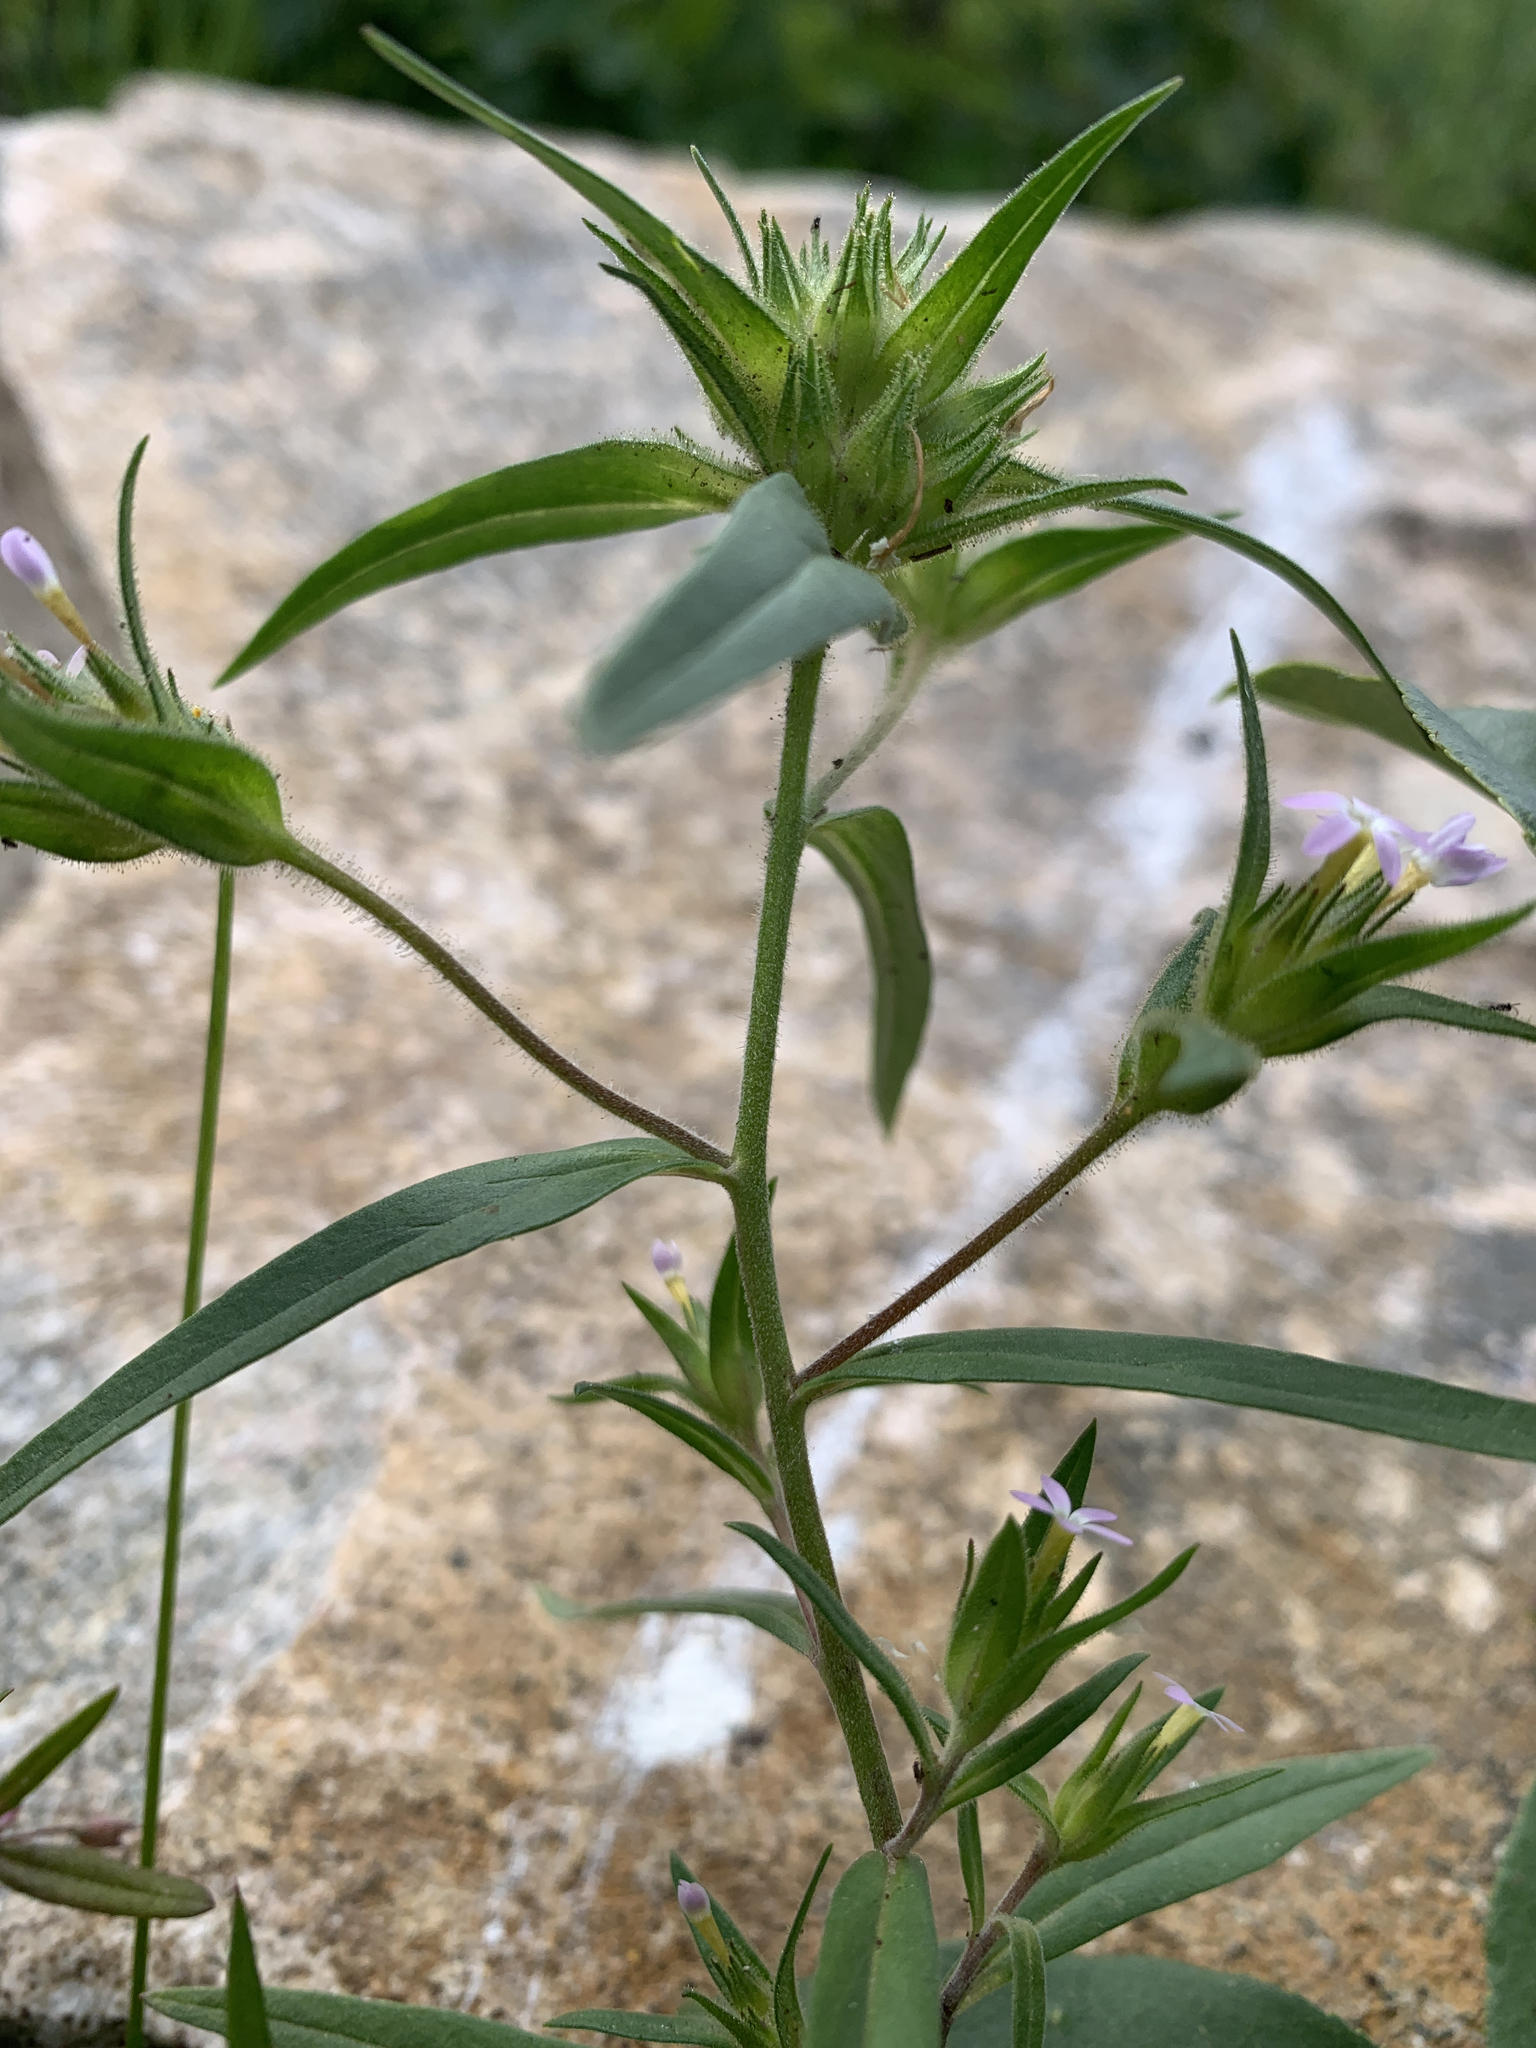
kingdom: Plantae
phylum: Tracheophyta
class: Magnoliopsida
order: Ericales
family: Polemoniaceae
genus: Collomia
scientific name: Collomia linearis
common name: Tiny trumpet
